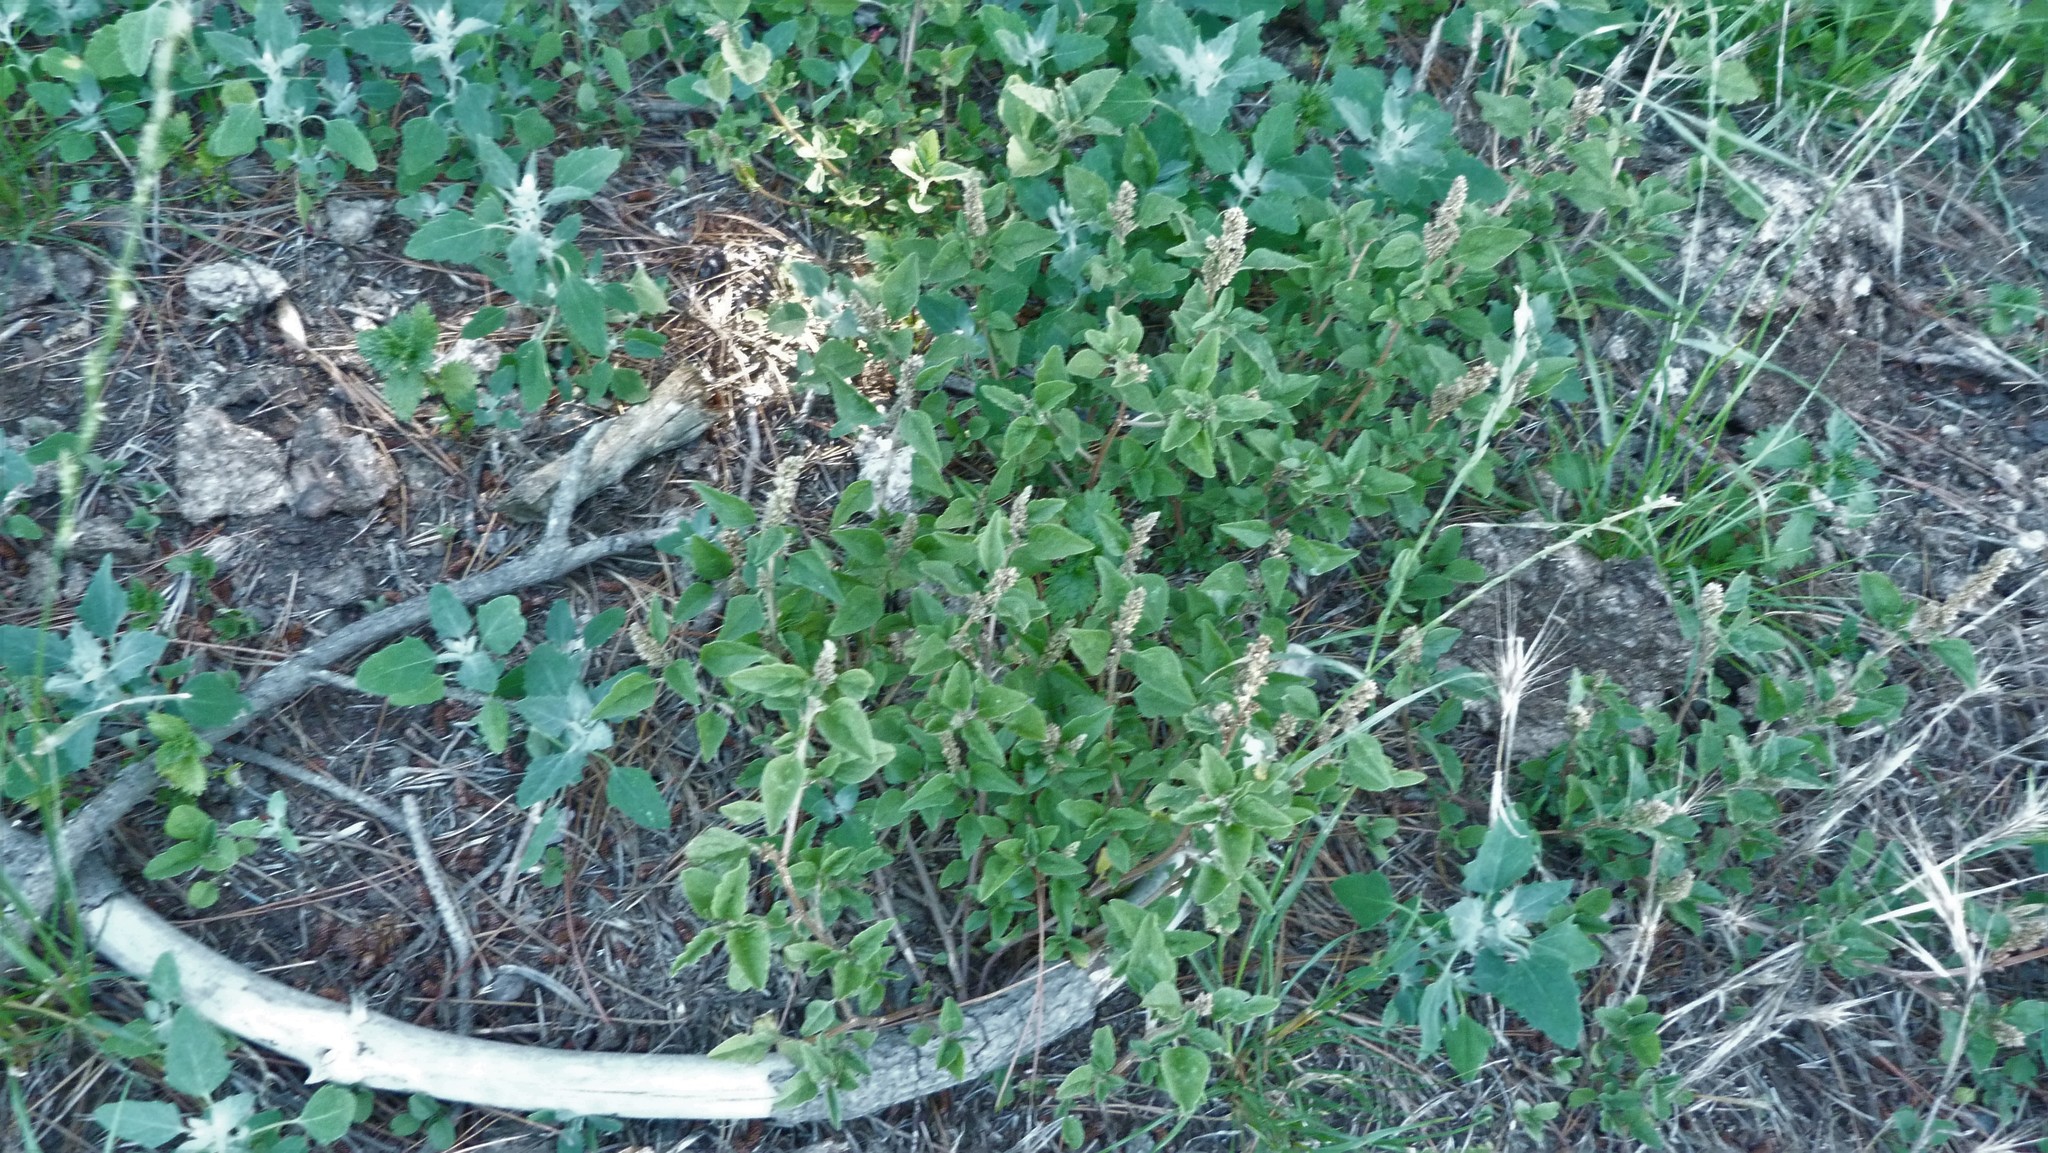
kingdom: Plantae
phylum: Tracheophyta
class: Magnoliopsida
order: Caryophyllales
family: Amaranthaceae
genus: Amaranthus
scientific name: Amaranthus deflexus
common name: Perennial pigweed
